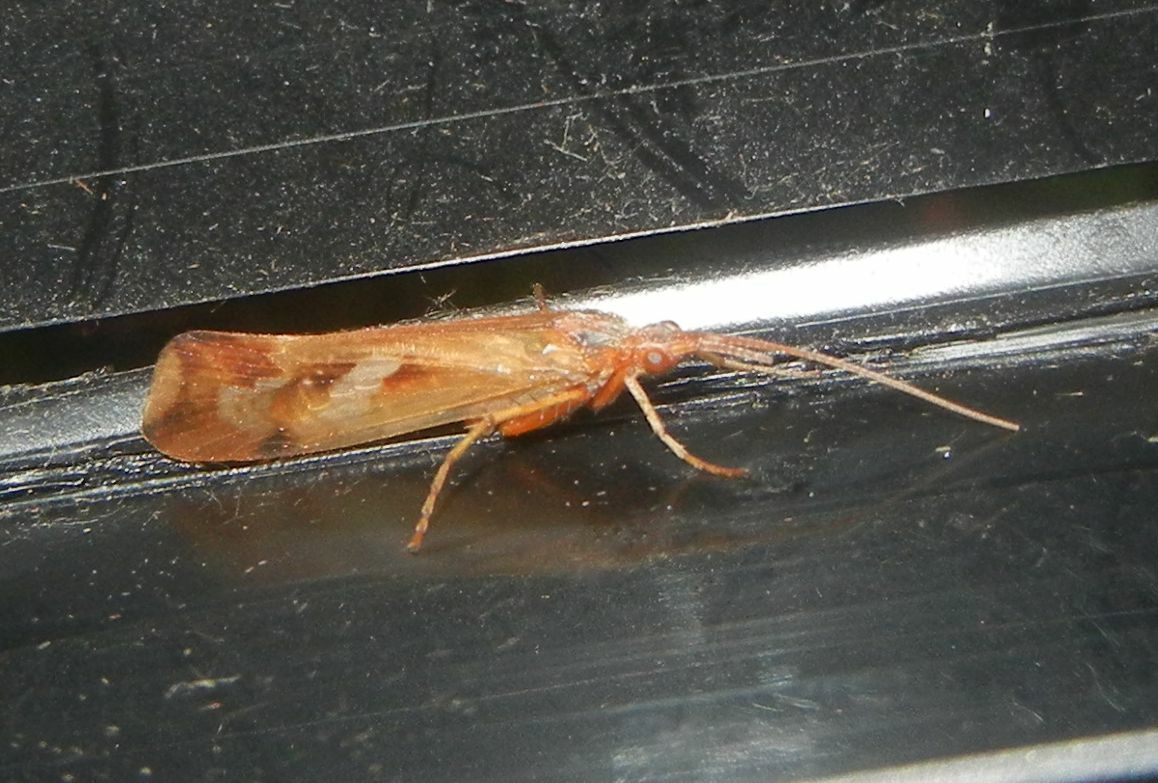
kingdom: Animalia
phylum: Arthropoda
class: Insecta
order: Trichoptera
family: Limnephilidae
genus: Limnephilus
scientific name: Limnephilus lunatus
